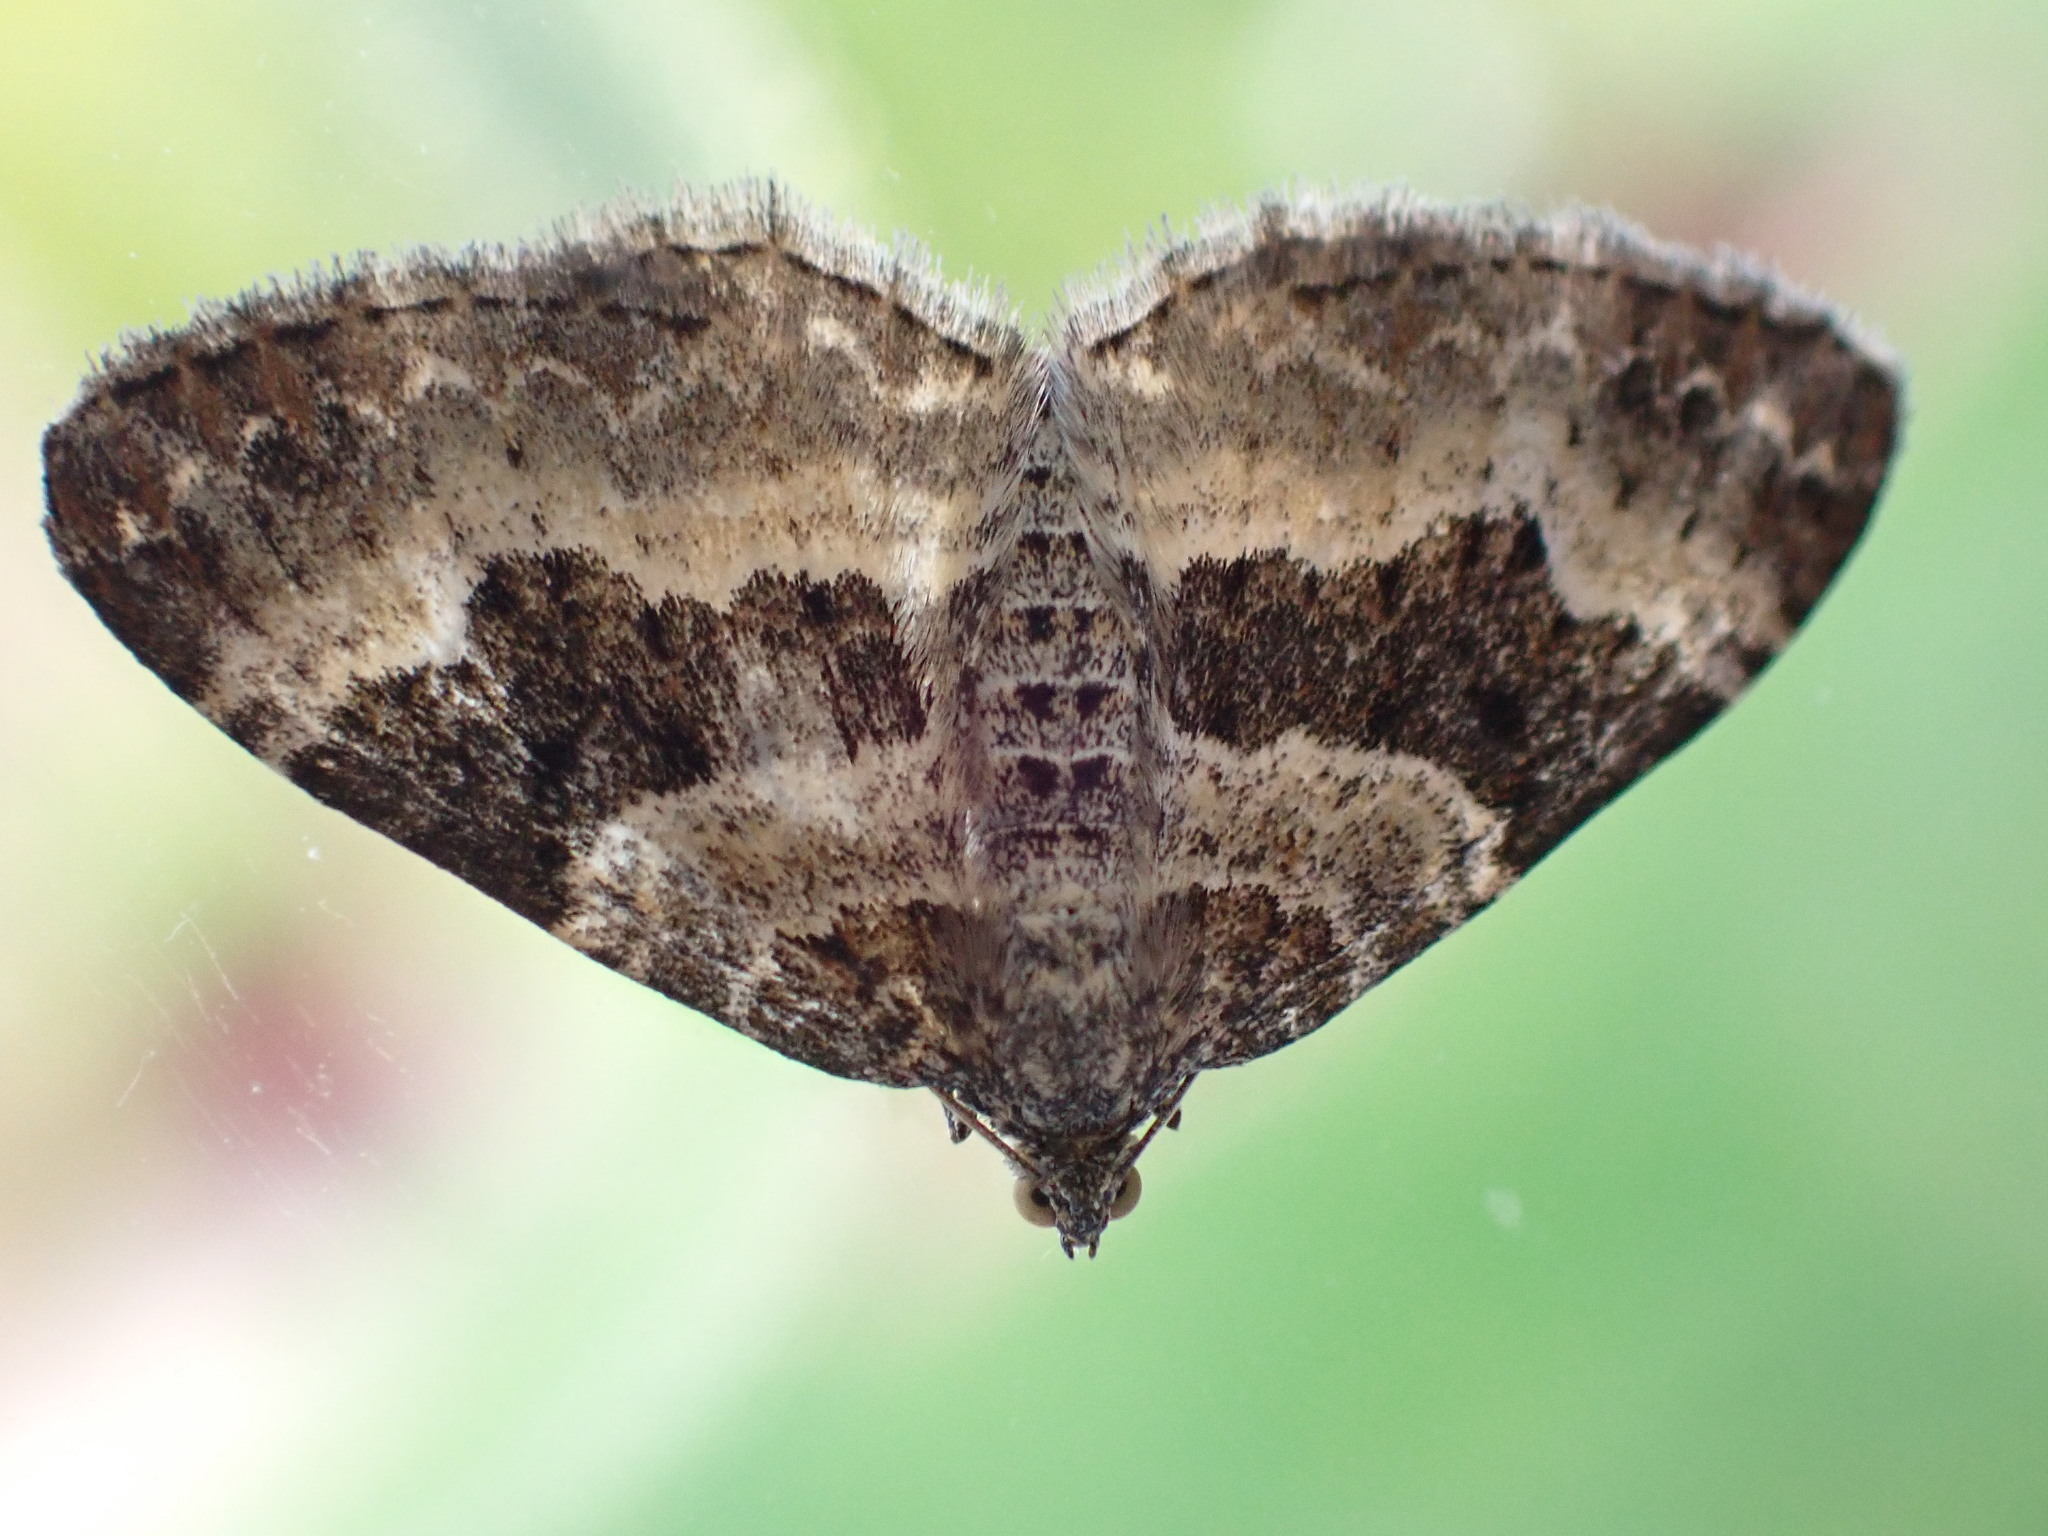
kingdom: Animalia
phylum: Arthropoda
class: Insecta
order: Lepidoptera
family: Geometridae
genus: Epirrhoe
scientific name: Epirrhoe alternata
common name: Common carpet
